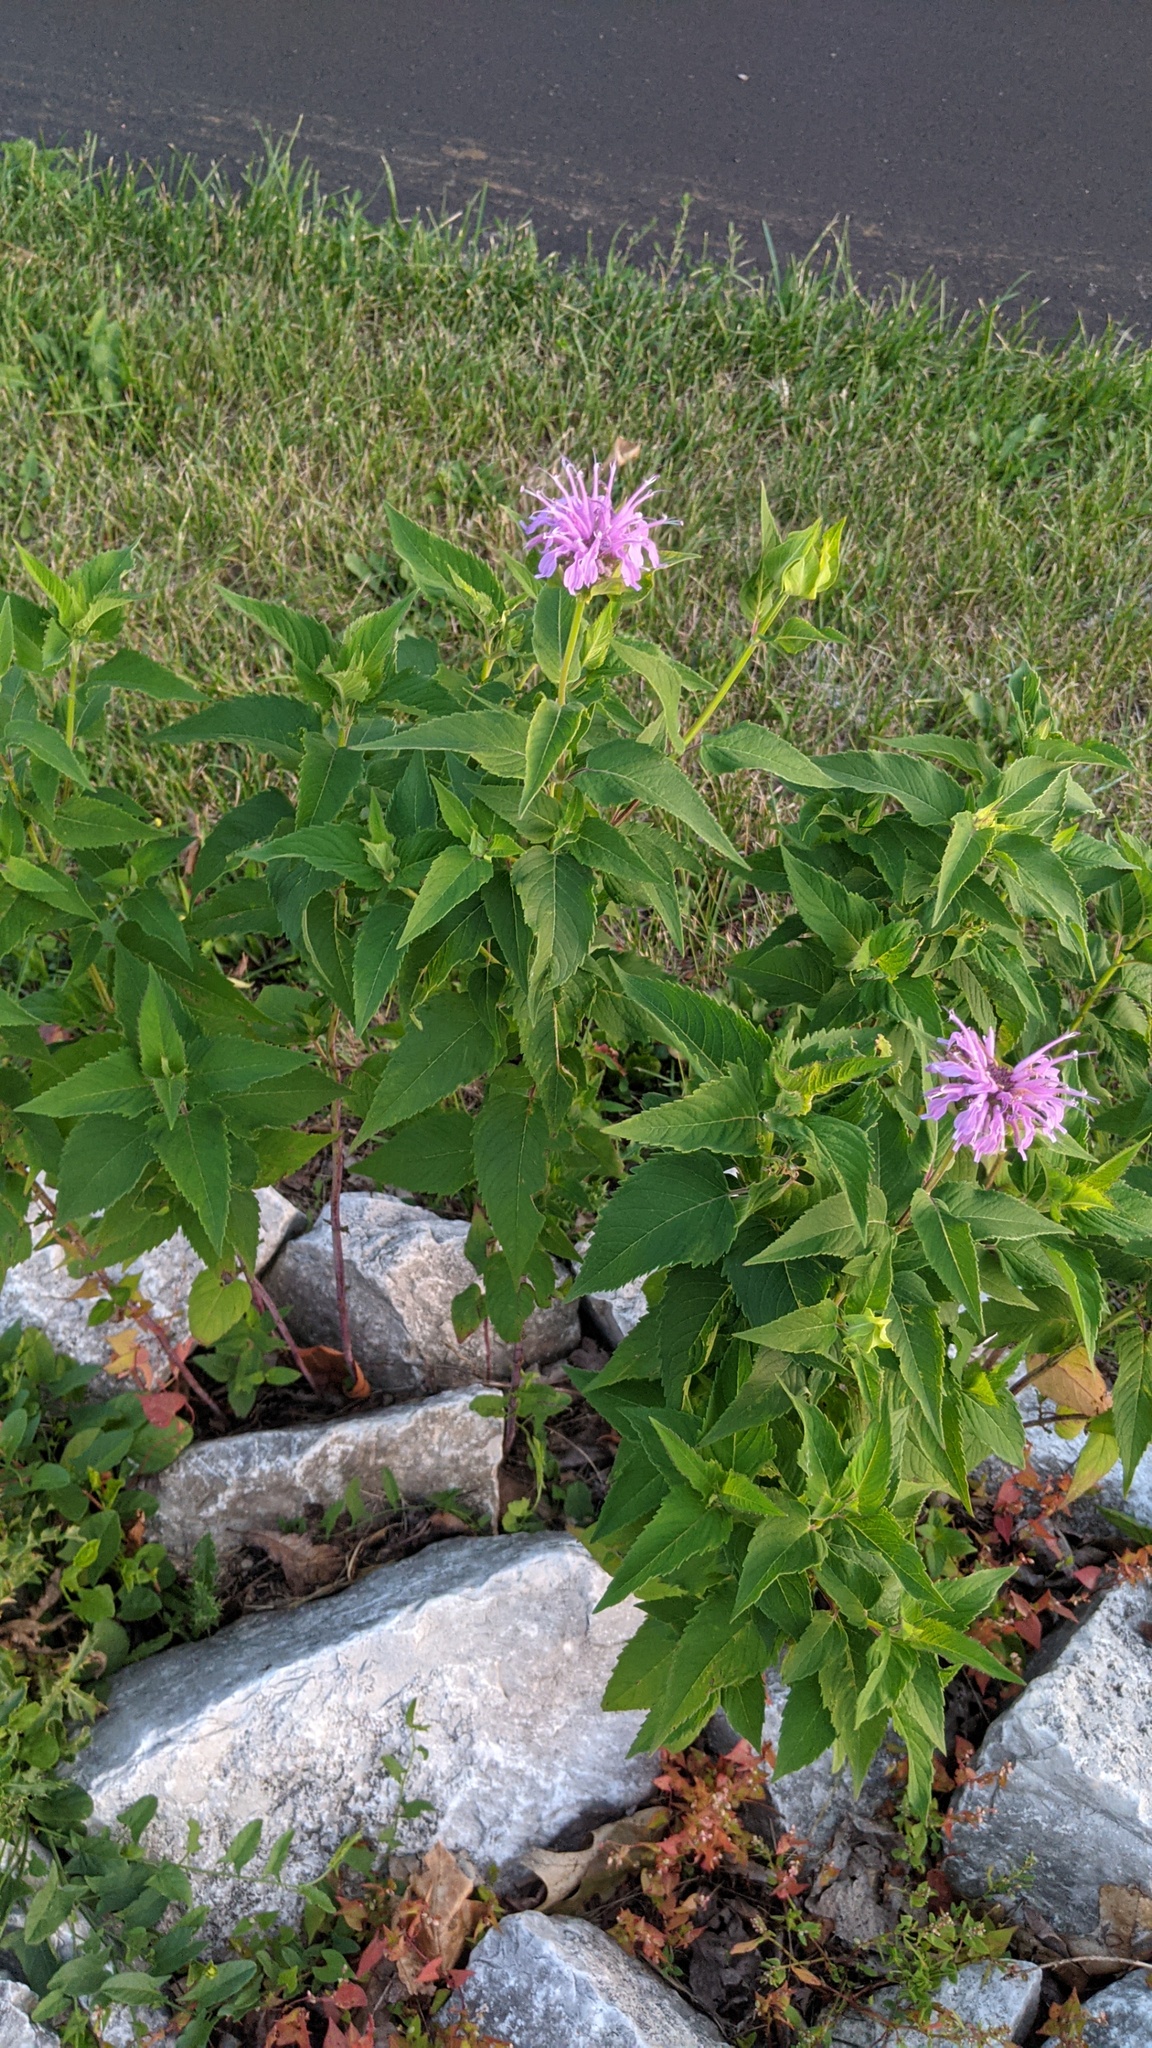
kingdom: Plantae
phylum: Tracheophyta
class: Magnoliopsida
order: Lamiales
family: Lamiaceae
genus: Monarda
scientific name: Monarda fistulosa
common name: Purple beebalm
